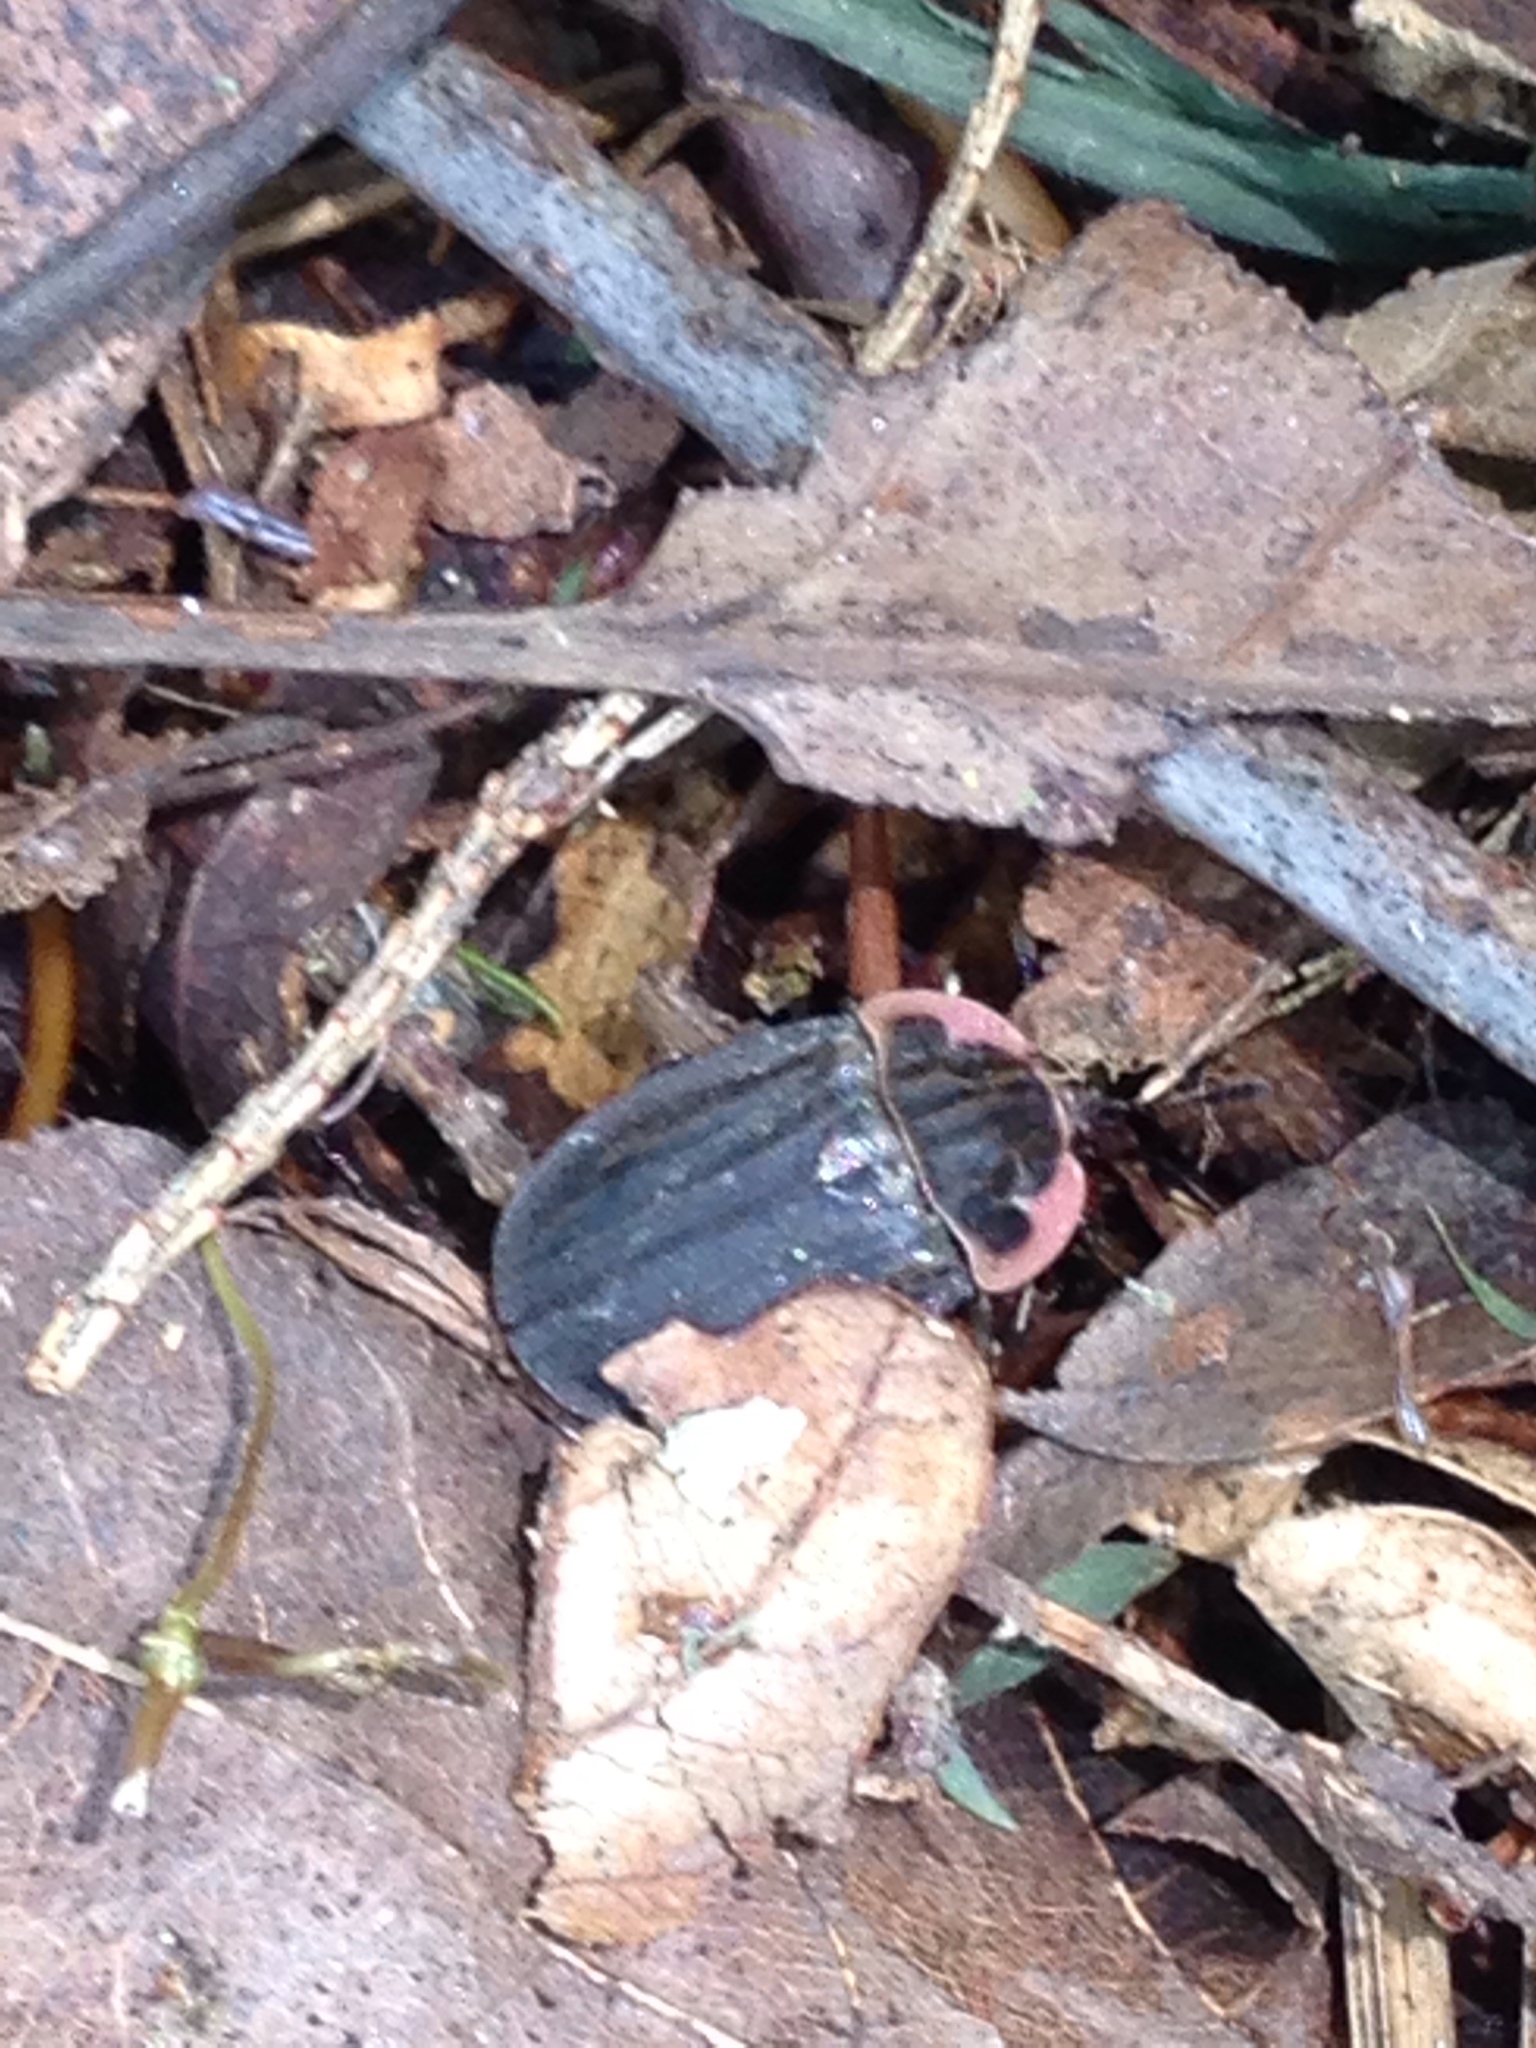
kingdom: Animalia
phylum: Arthropoda
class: Insecta
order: Coleoptera
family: Staphylinidae
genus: Oiceoptoma
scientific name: Oiceoptoma noveboracense
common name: Margined carrion beetle
